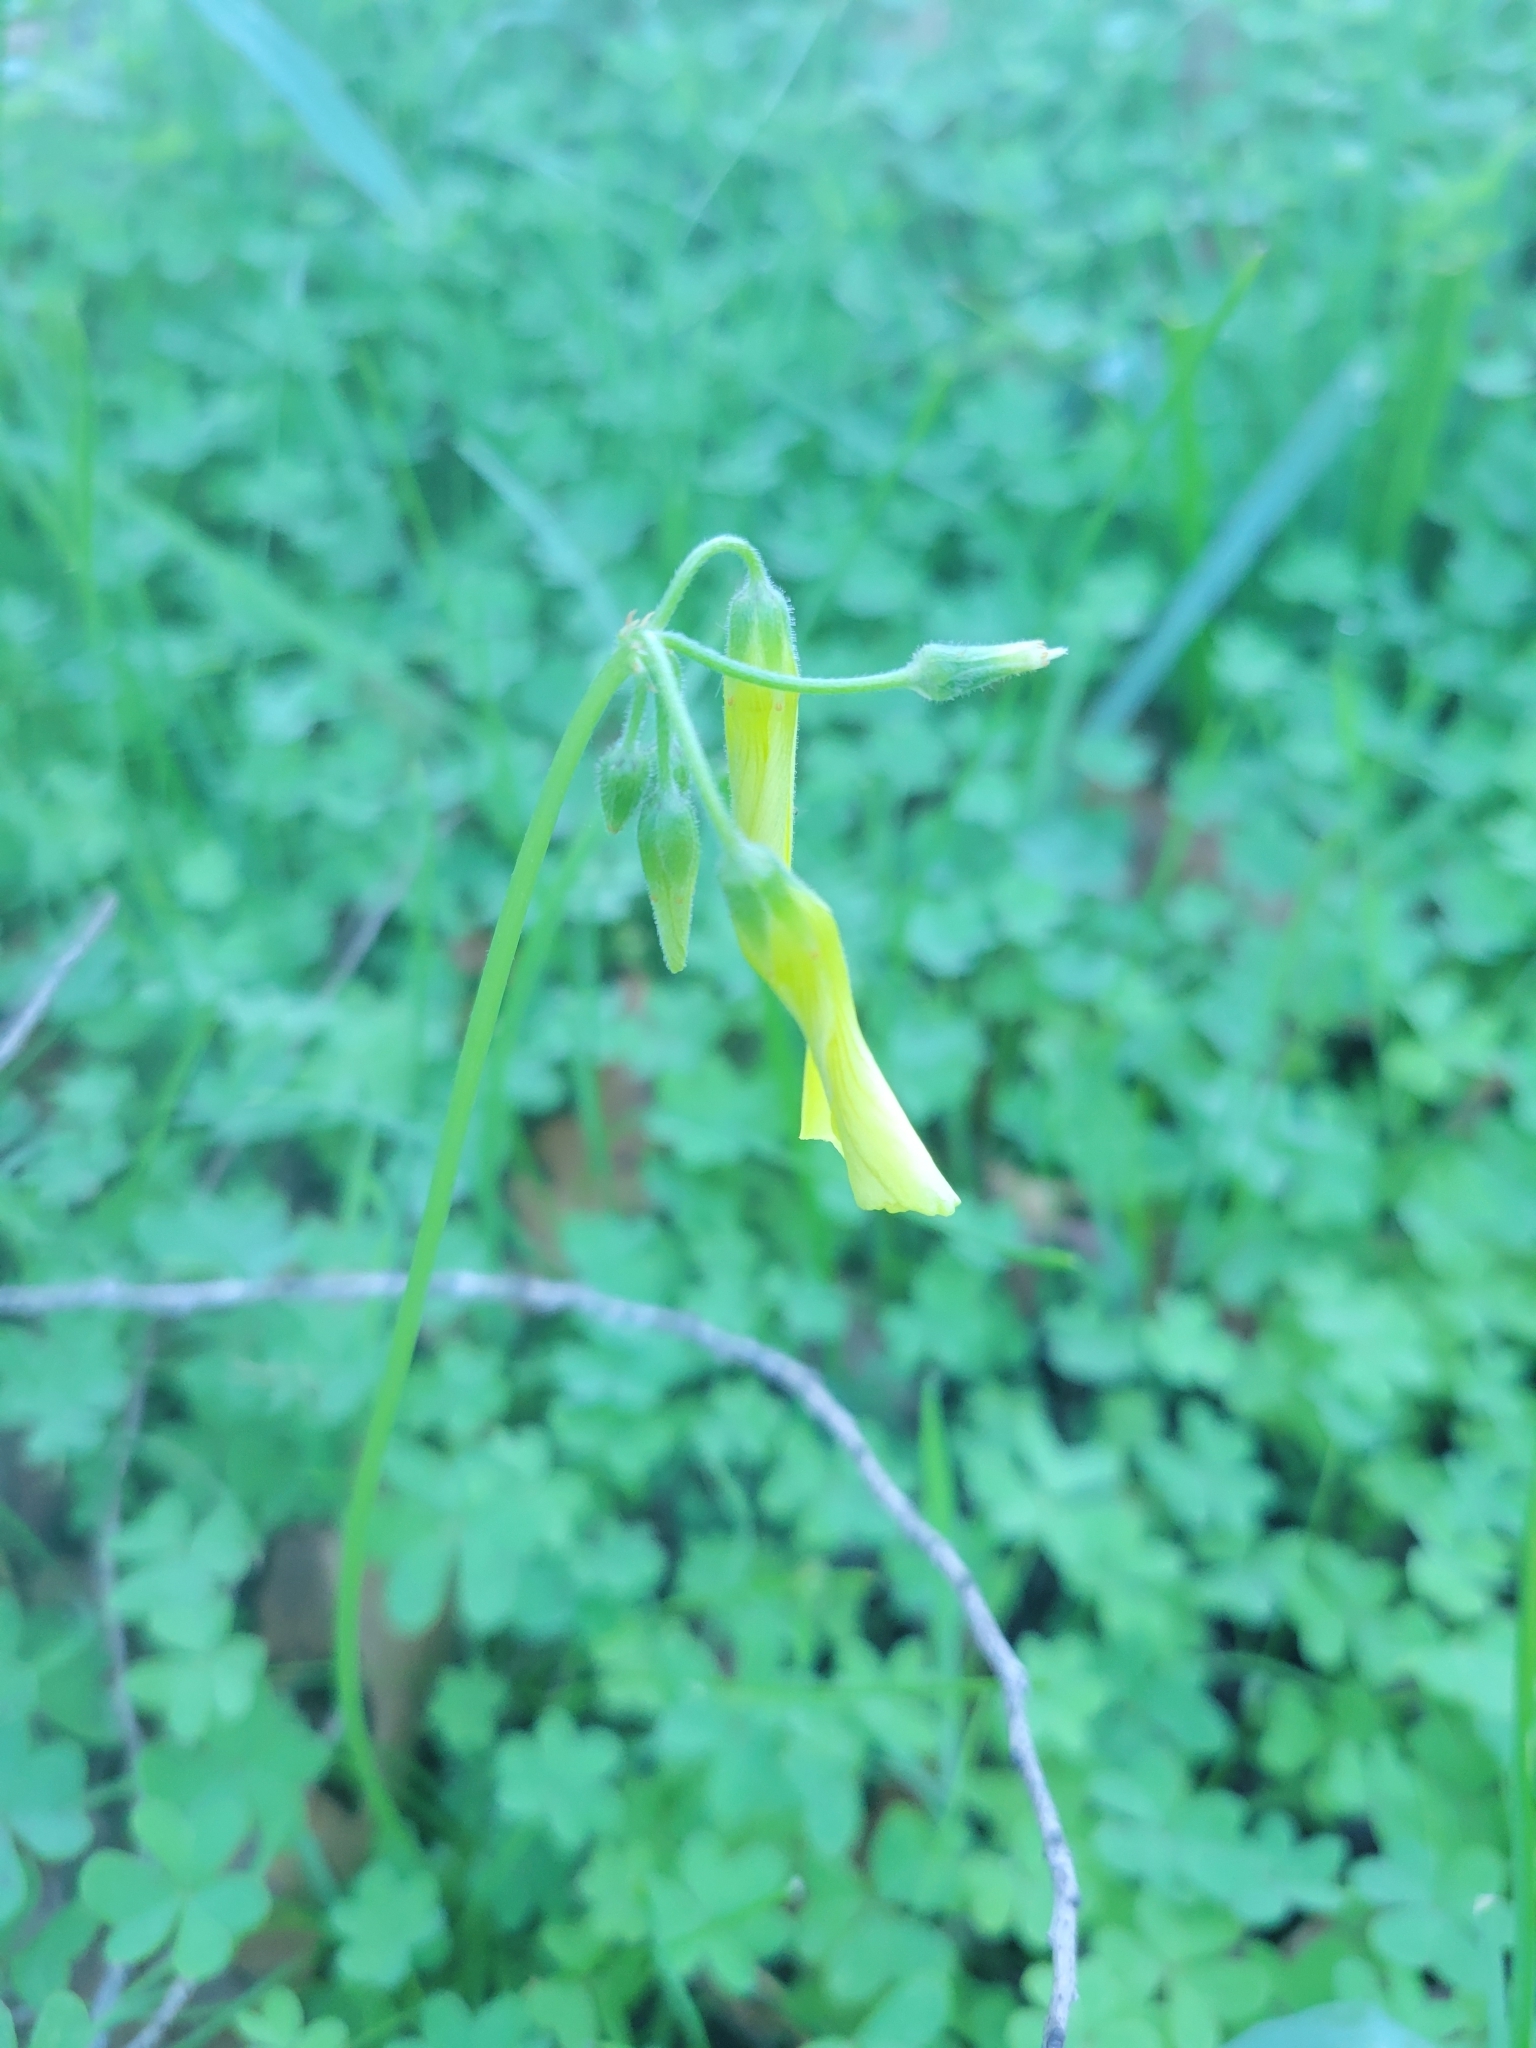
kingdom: Plantae
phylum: Tracheophyta
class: Magnoliopsida
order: Oxalidales
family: Oxalidaceae
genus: Oxalis
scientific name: Oxalis pes-caprae
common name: Bermuda-buttercup
